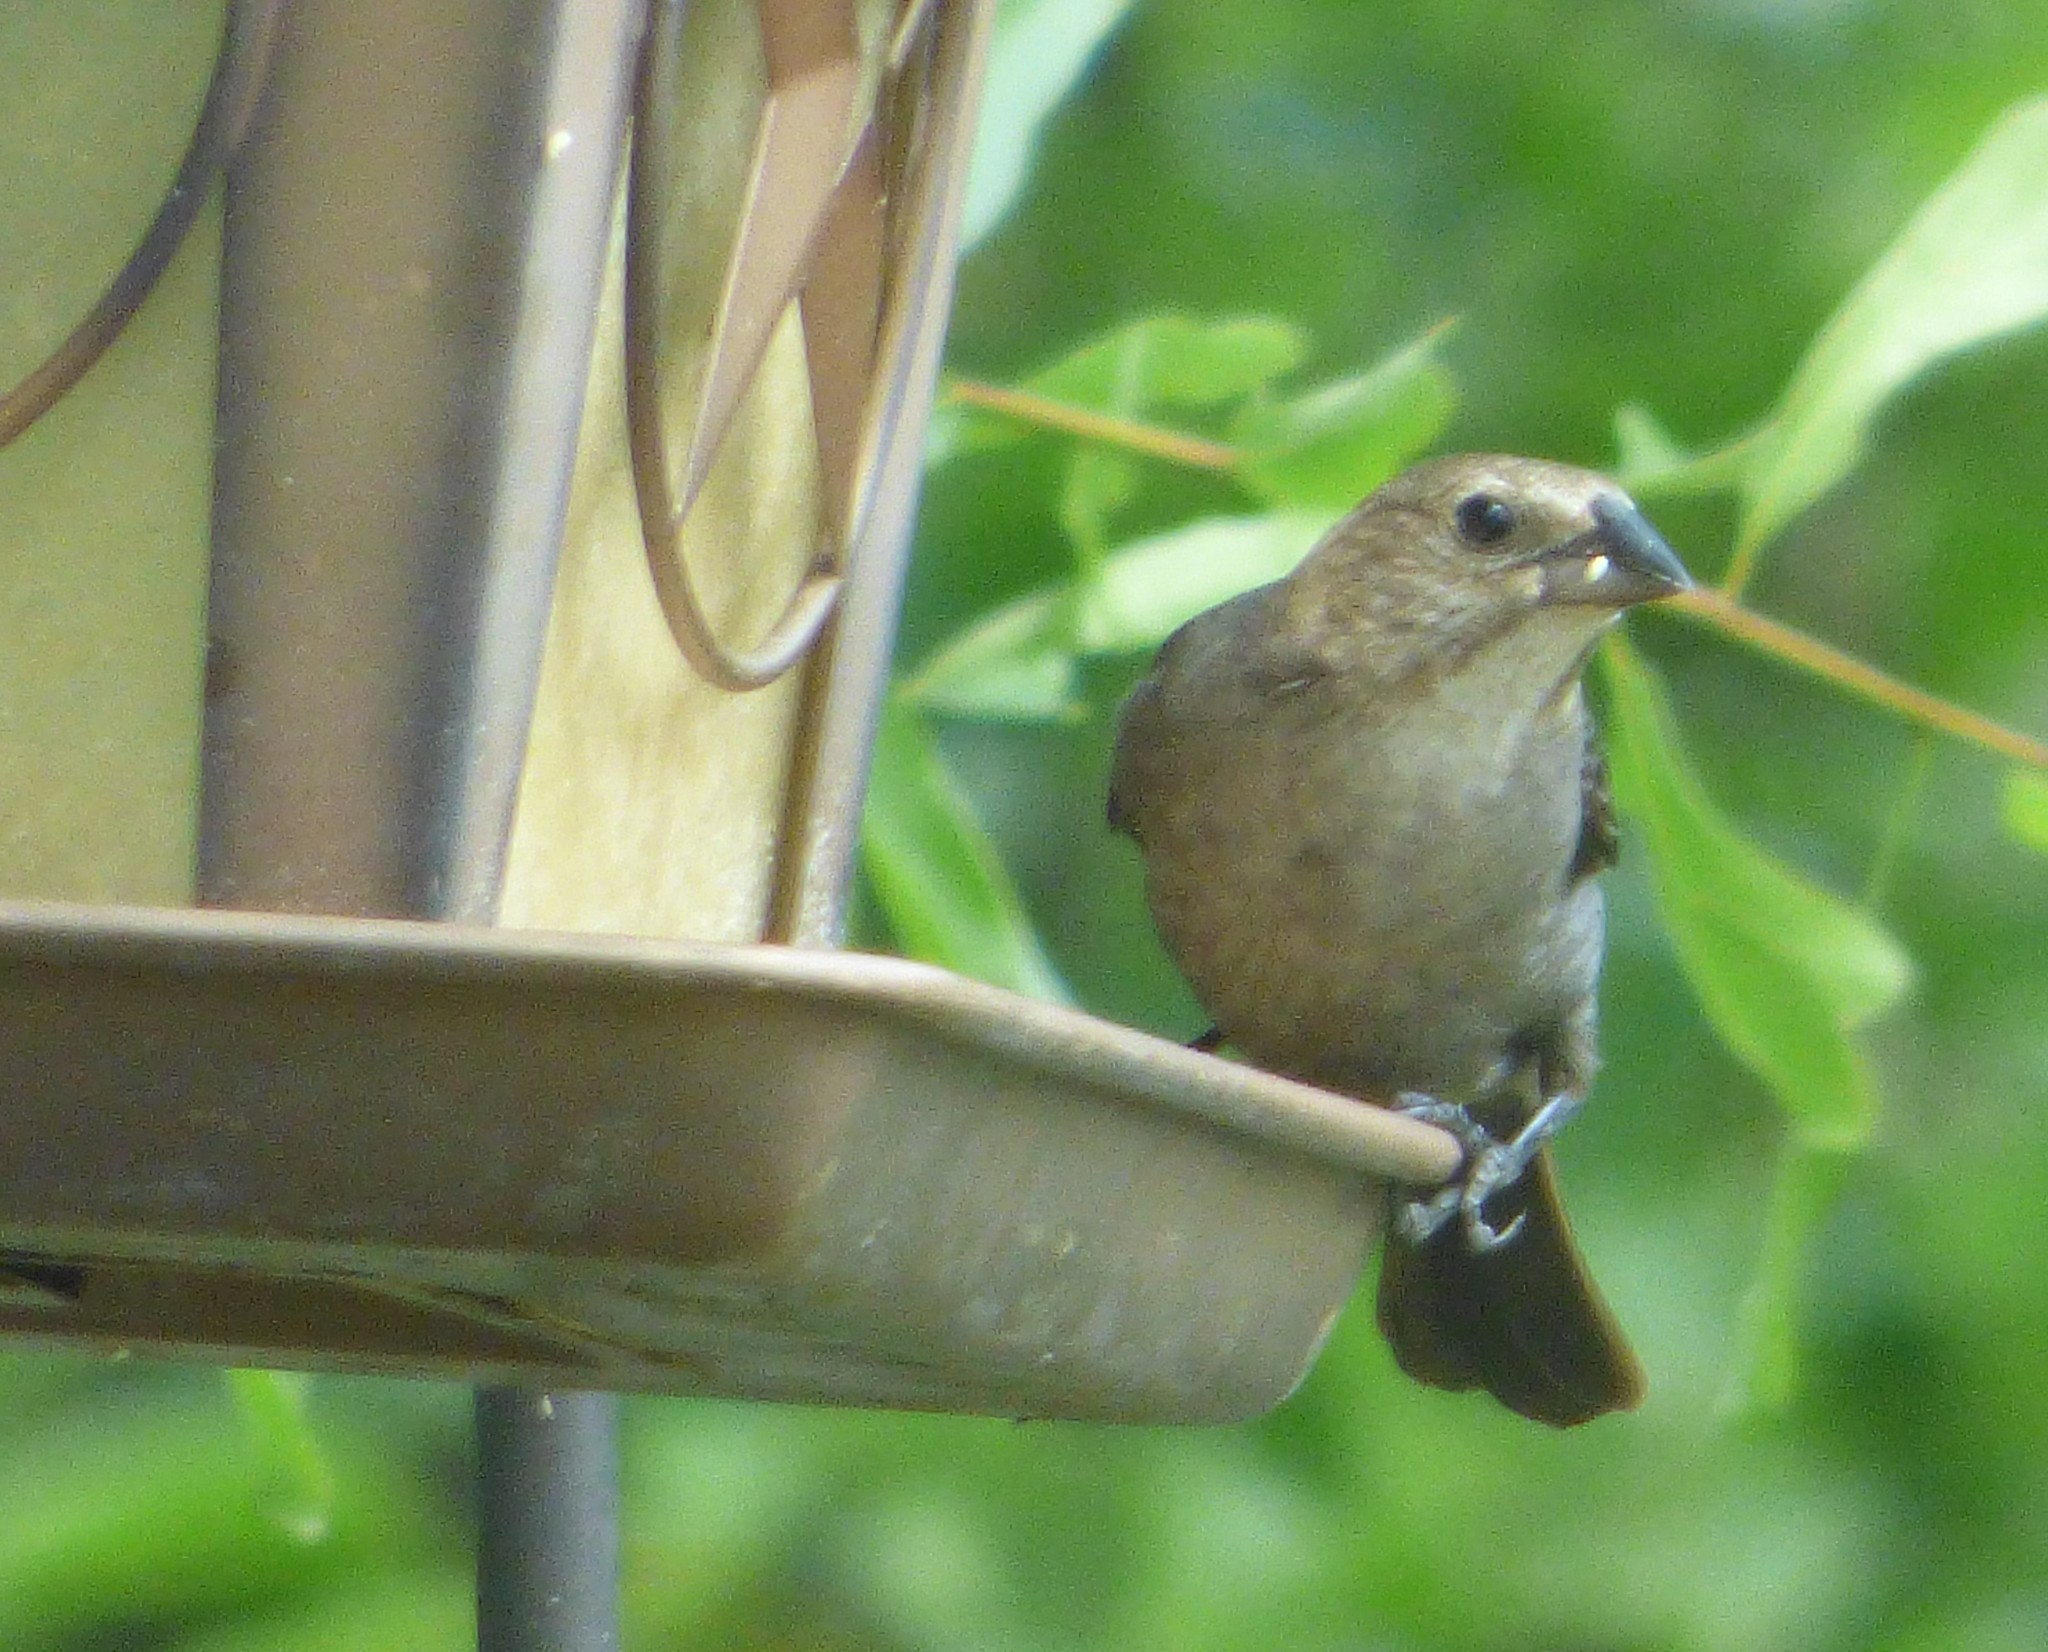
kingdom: Animalia
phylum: Chordata
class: Aves
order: Passeriformes
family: Icteridae
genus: Molothrus
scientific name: Molothrus ater
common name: Brown-headed cowbird
